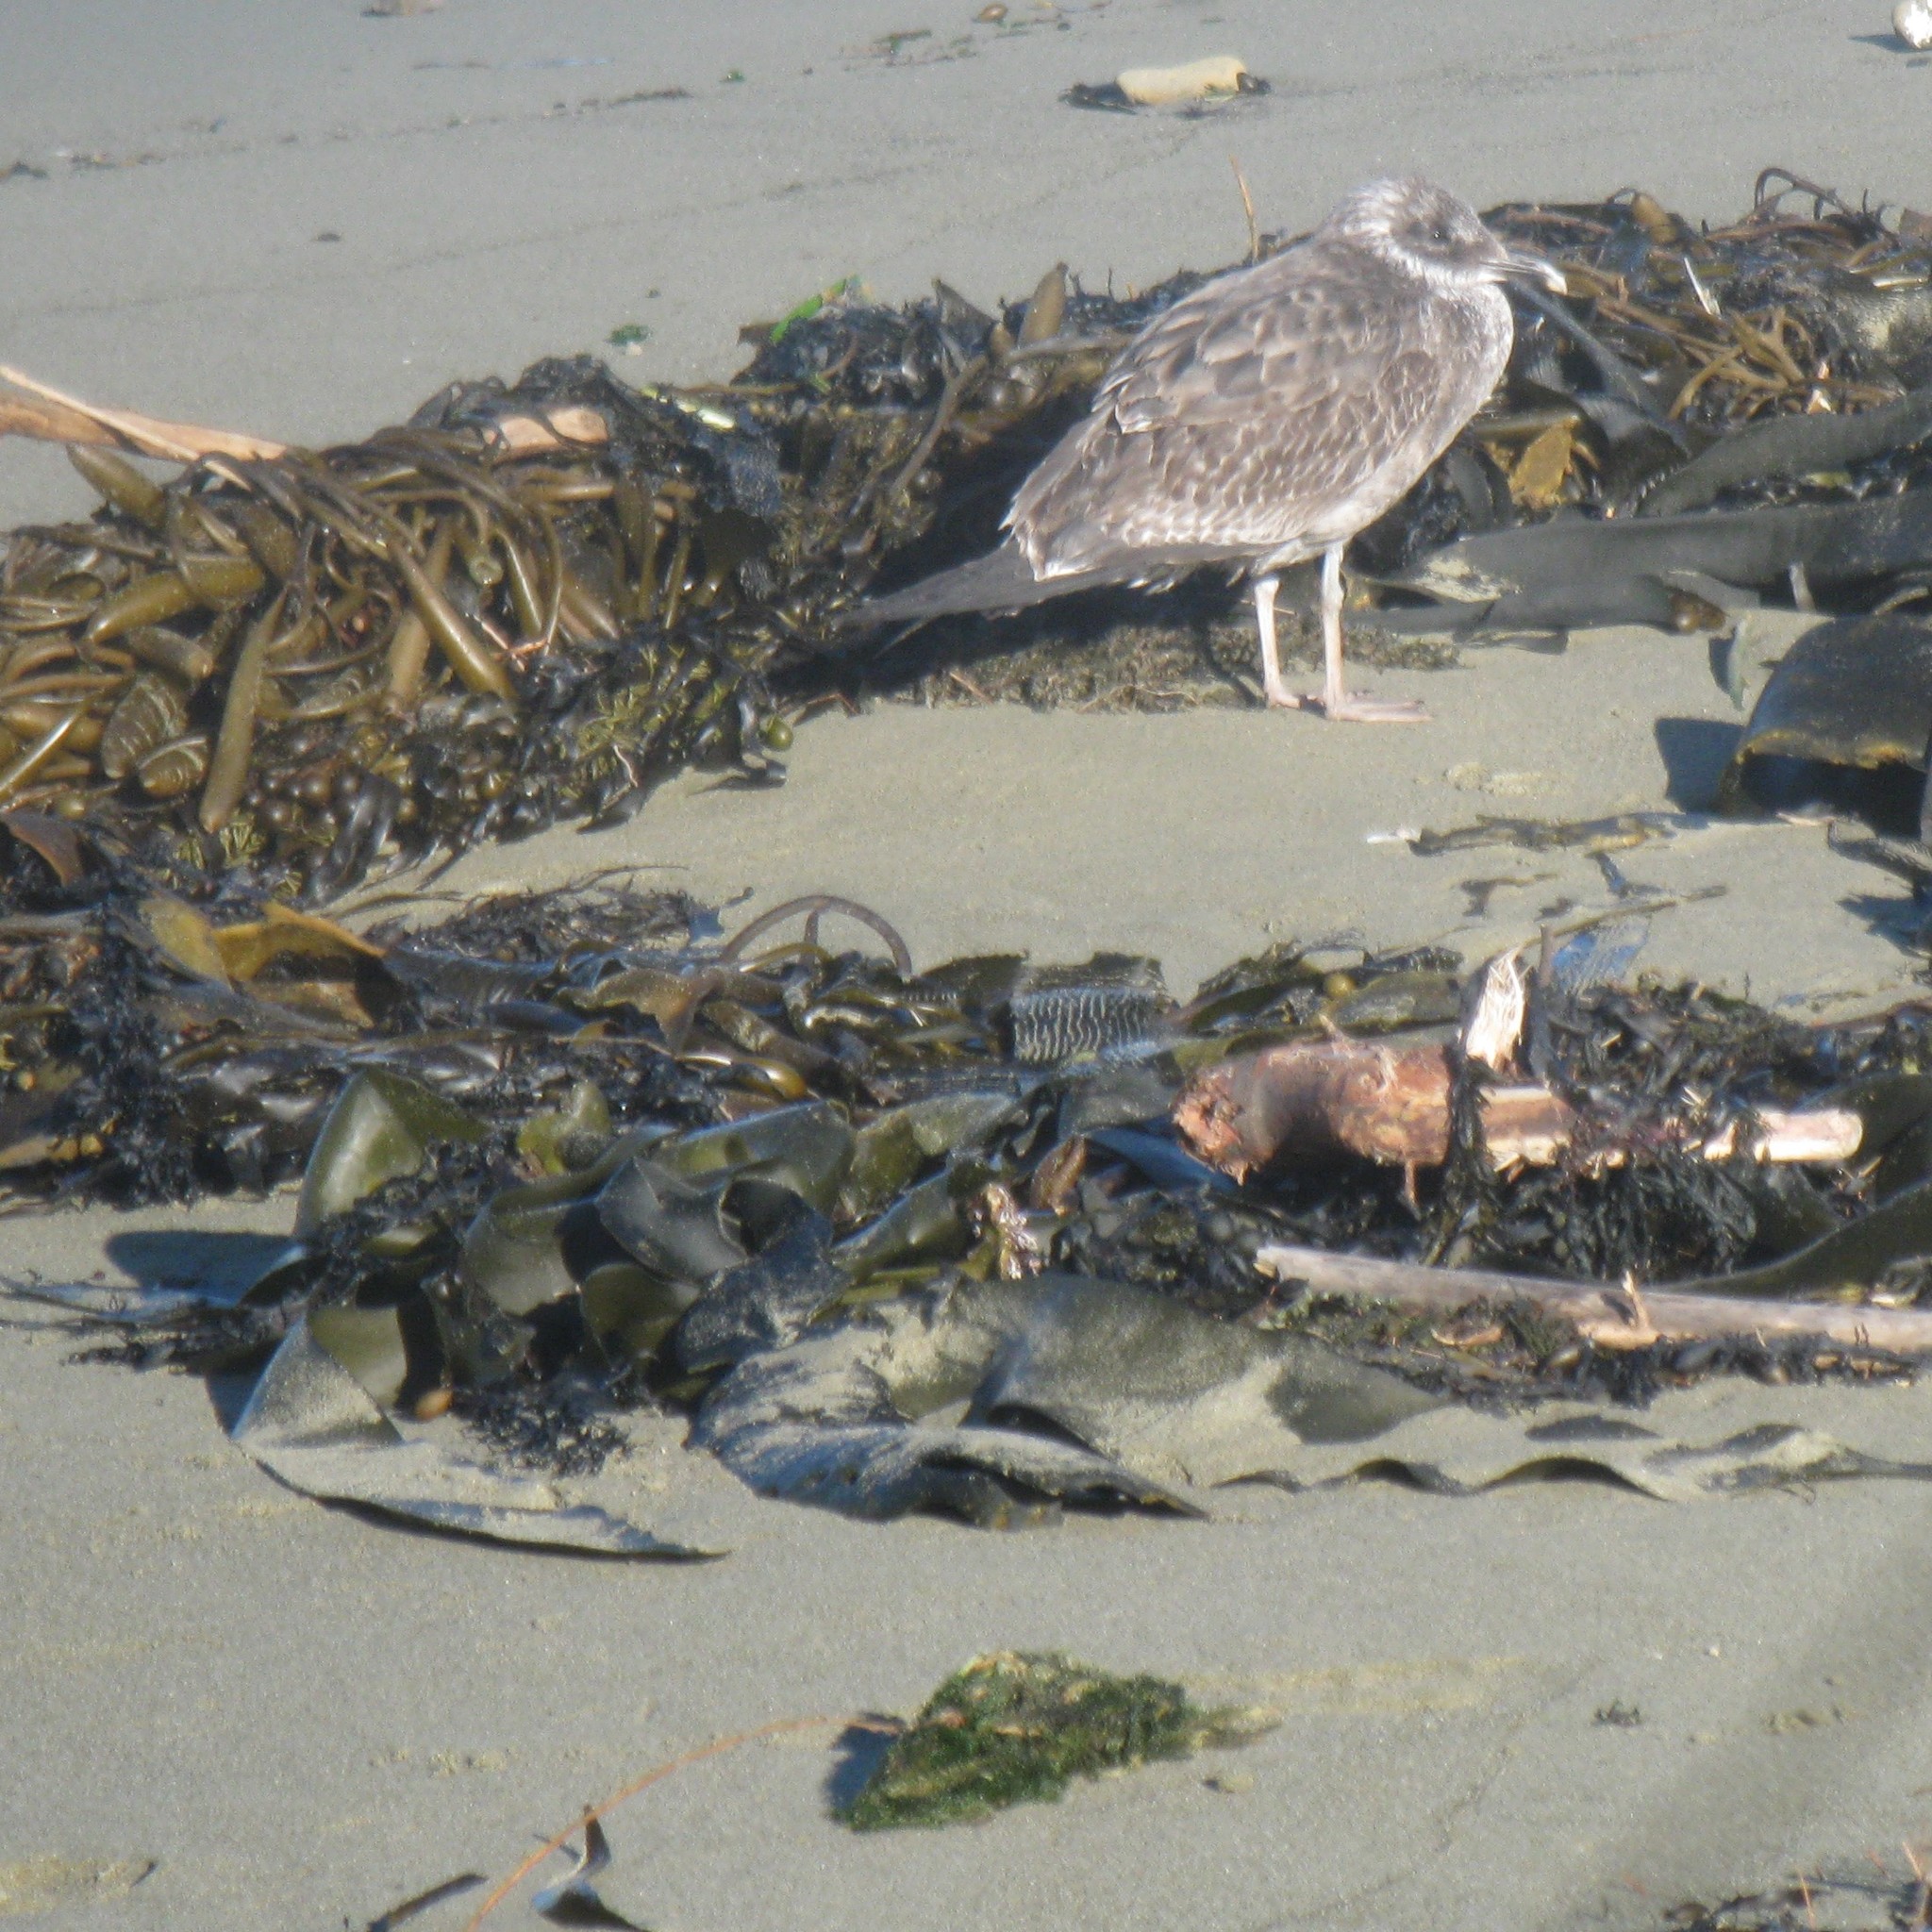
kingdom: Animalia
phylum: Chordata
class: Aves
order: Charadriiformes
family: Laridae
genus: Larus
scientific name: Larus dominicanus
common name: Kelp gull
